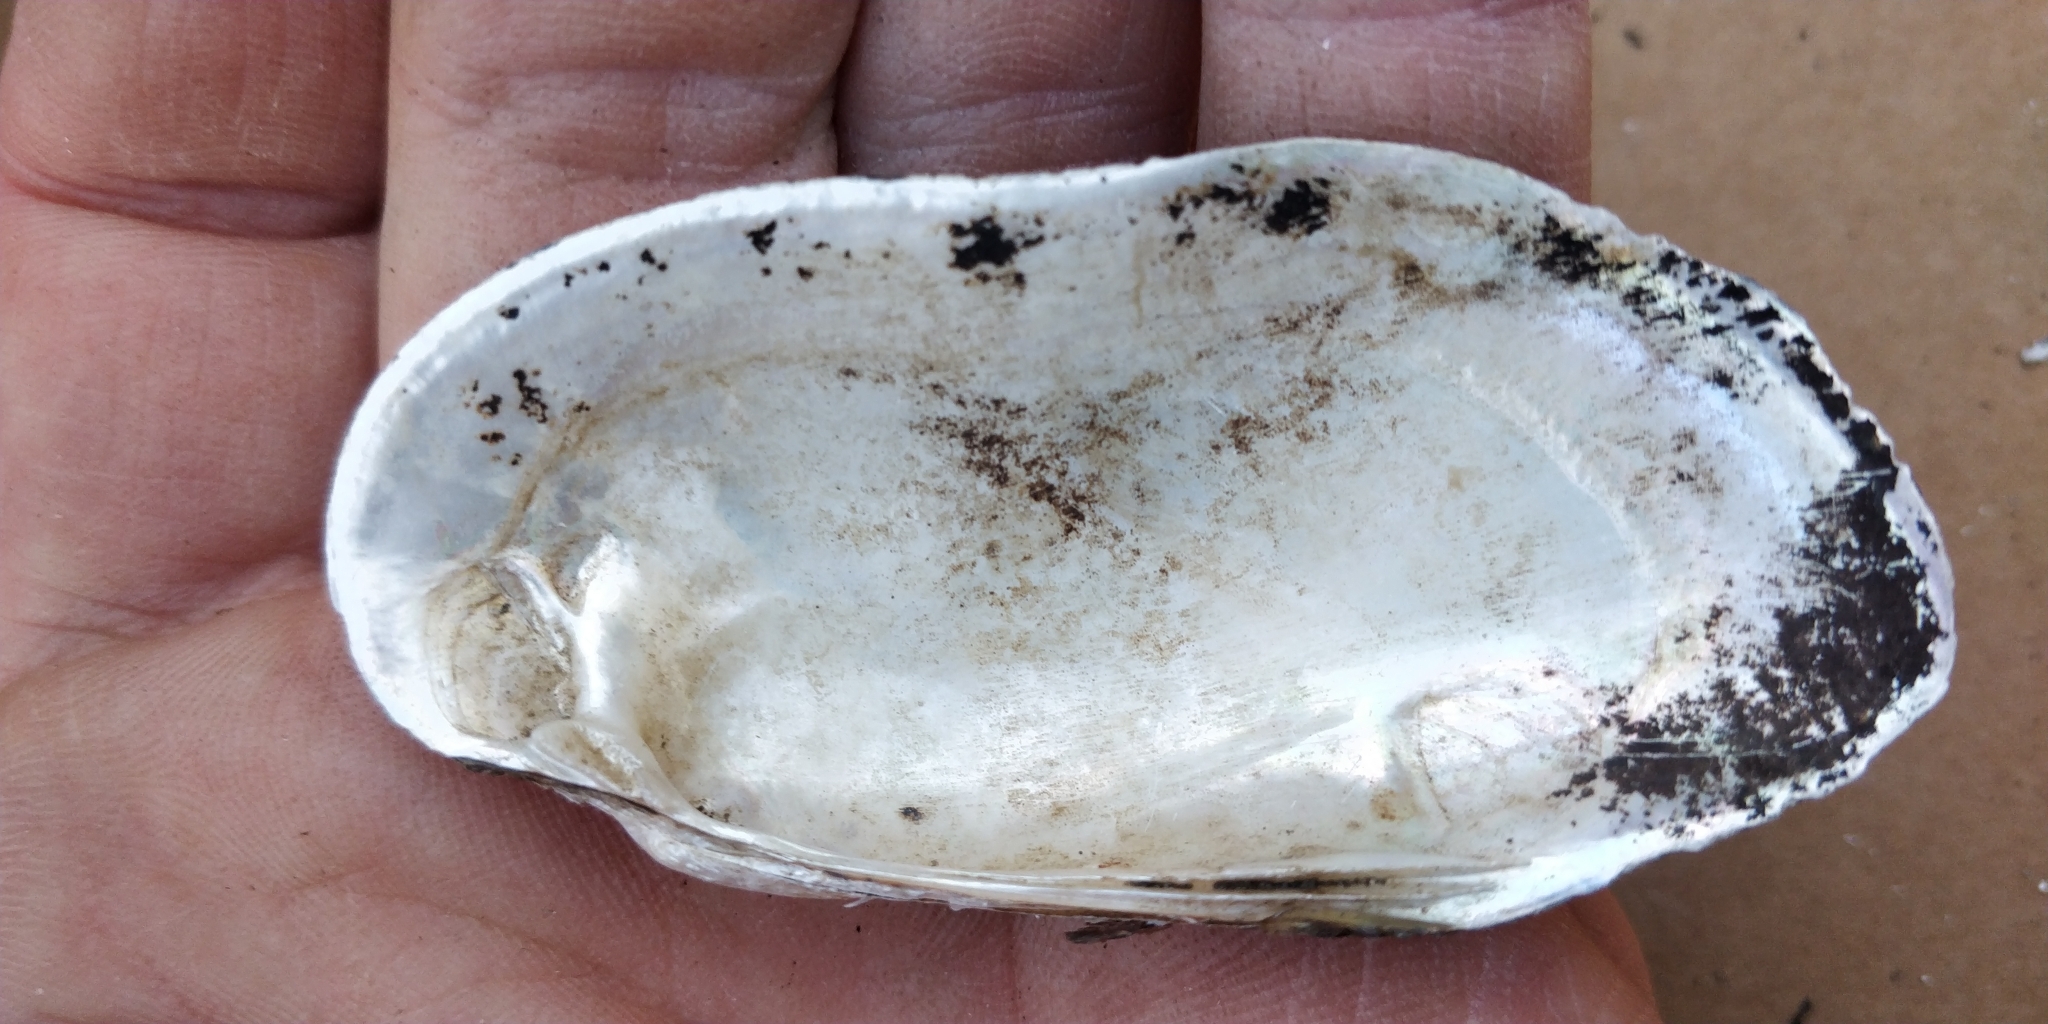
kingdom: Animalia
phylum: Mollusca
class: Bivalvia
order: Unionida
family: Unionidae
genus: Lampsilis
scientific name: Lampsilis teres
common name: Yellow sandshell
